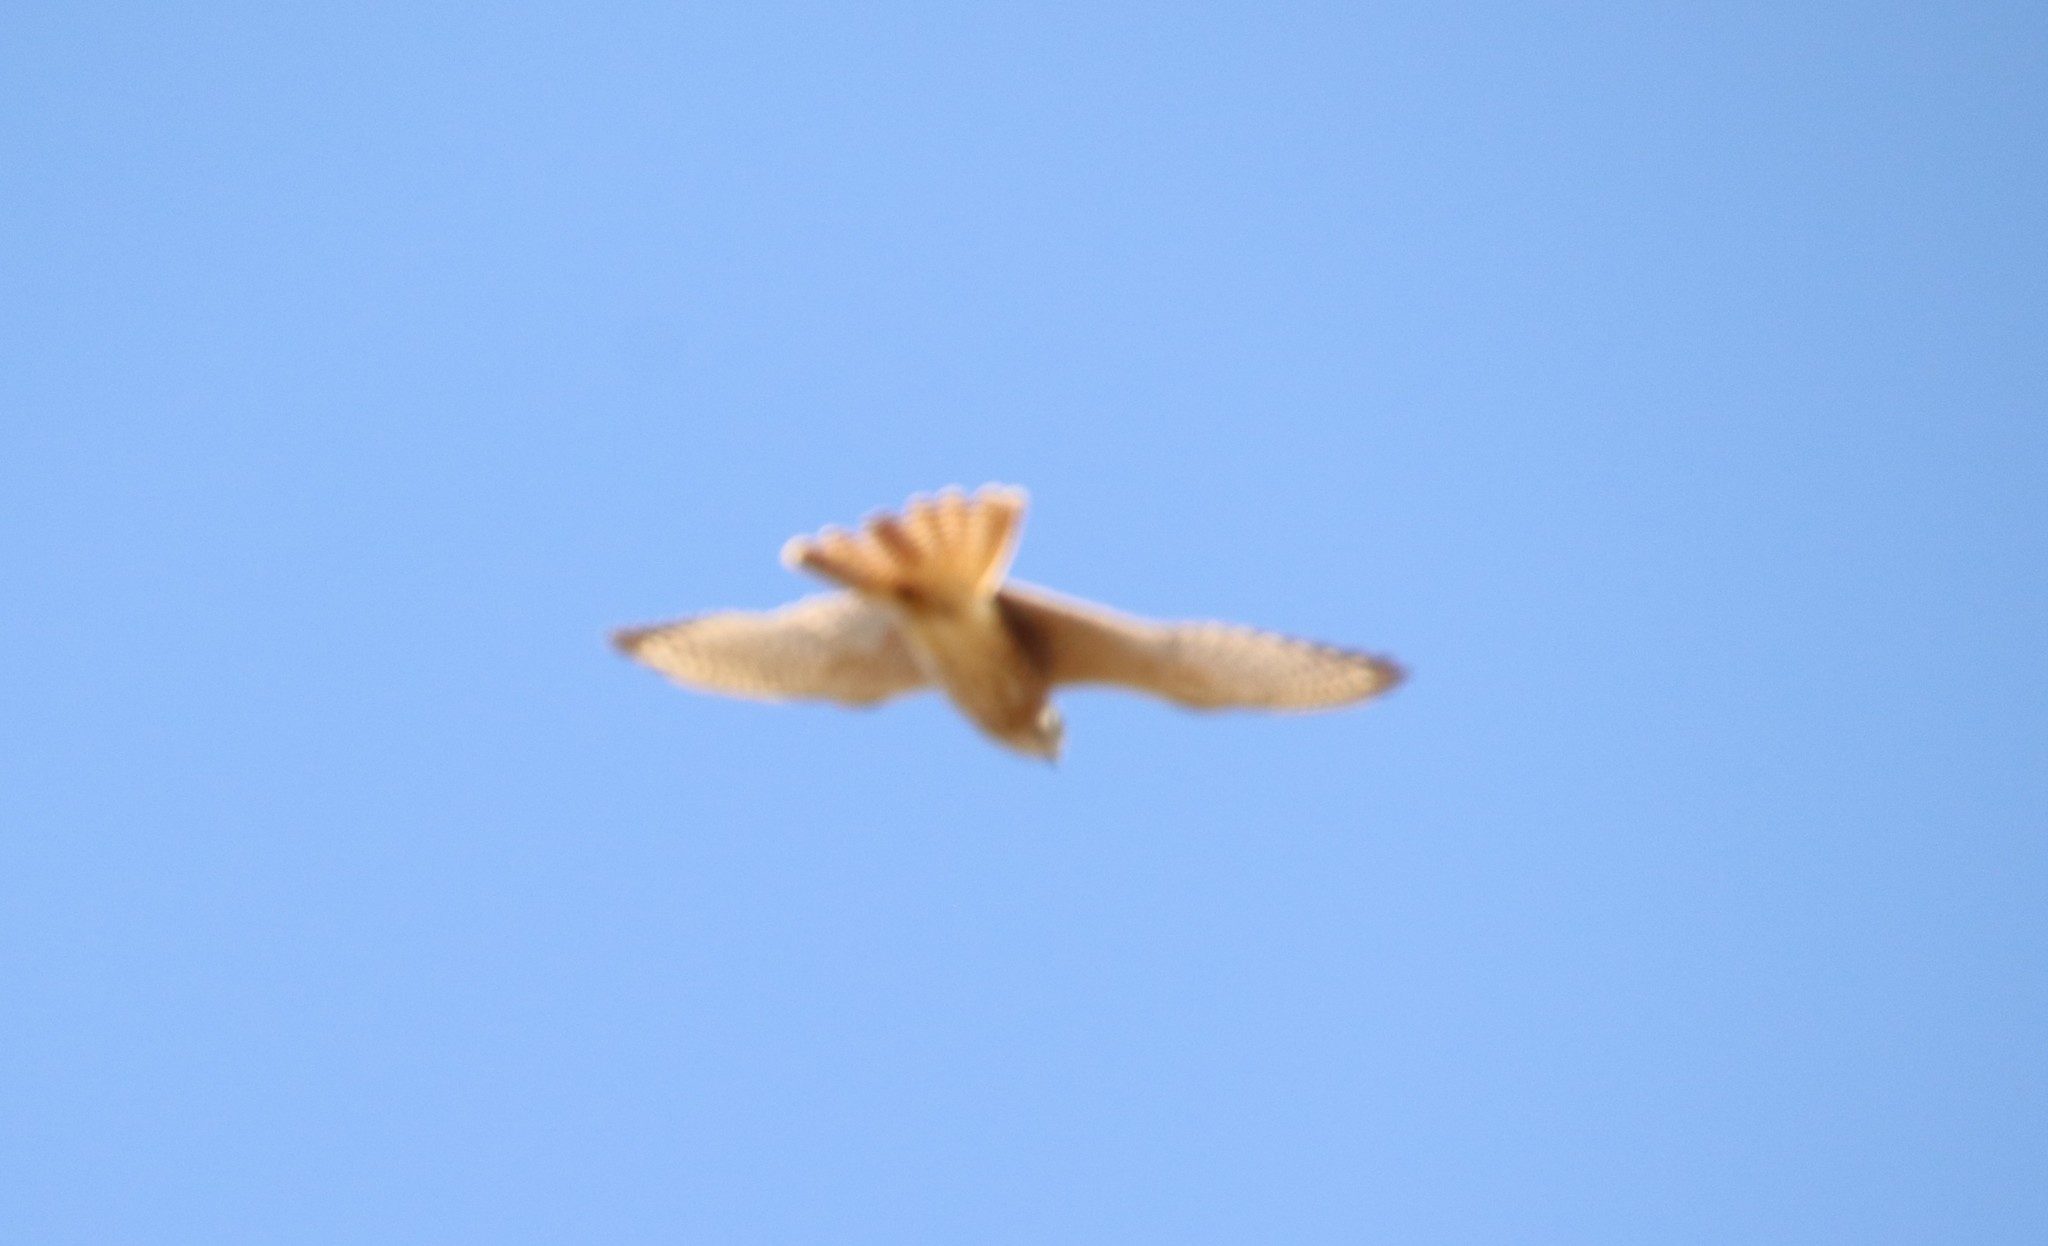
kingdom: Animalia
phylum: Chordata
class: Aves
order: Falconiformes
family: Falconidae
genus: Falco
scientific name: Falco sparverius
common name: American kestrel
